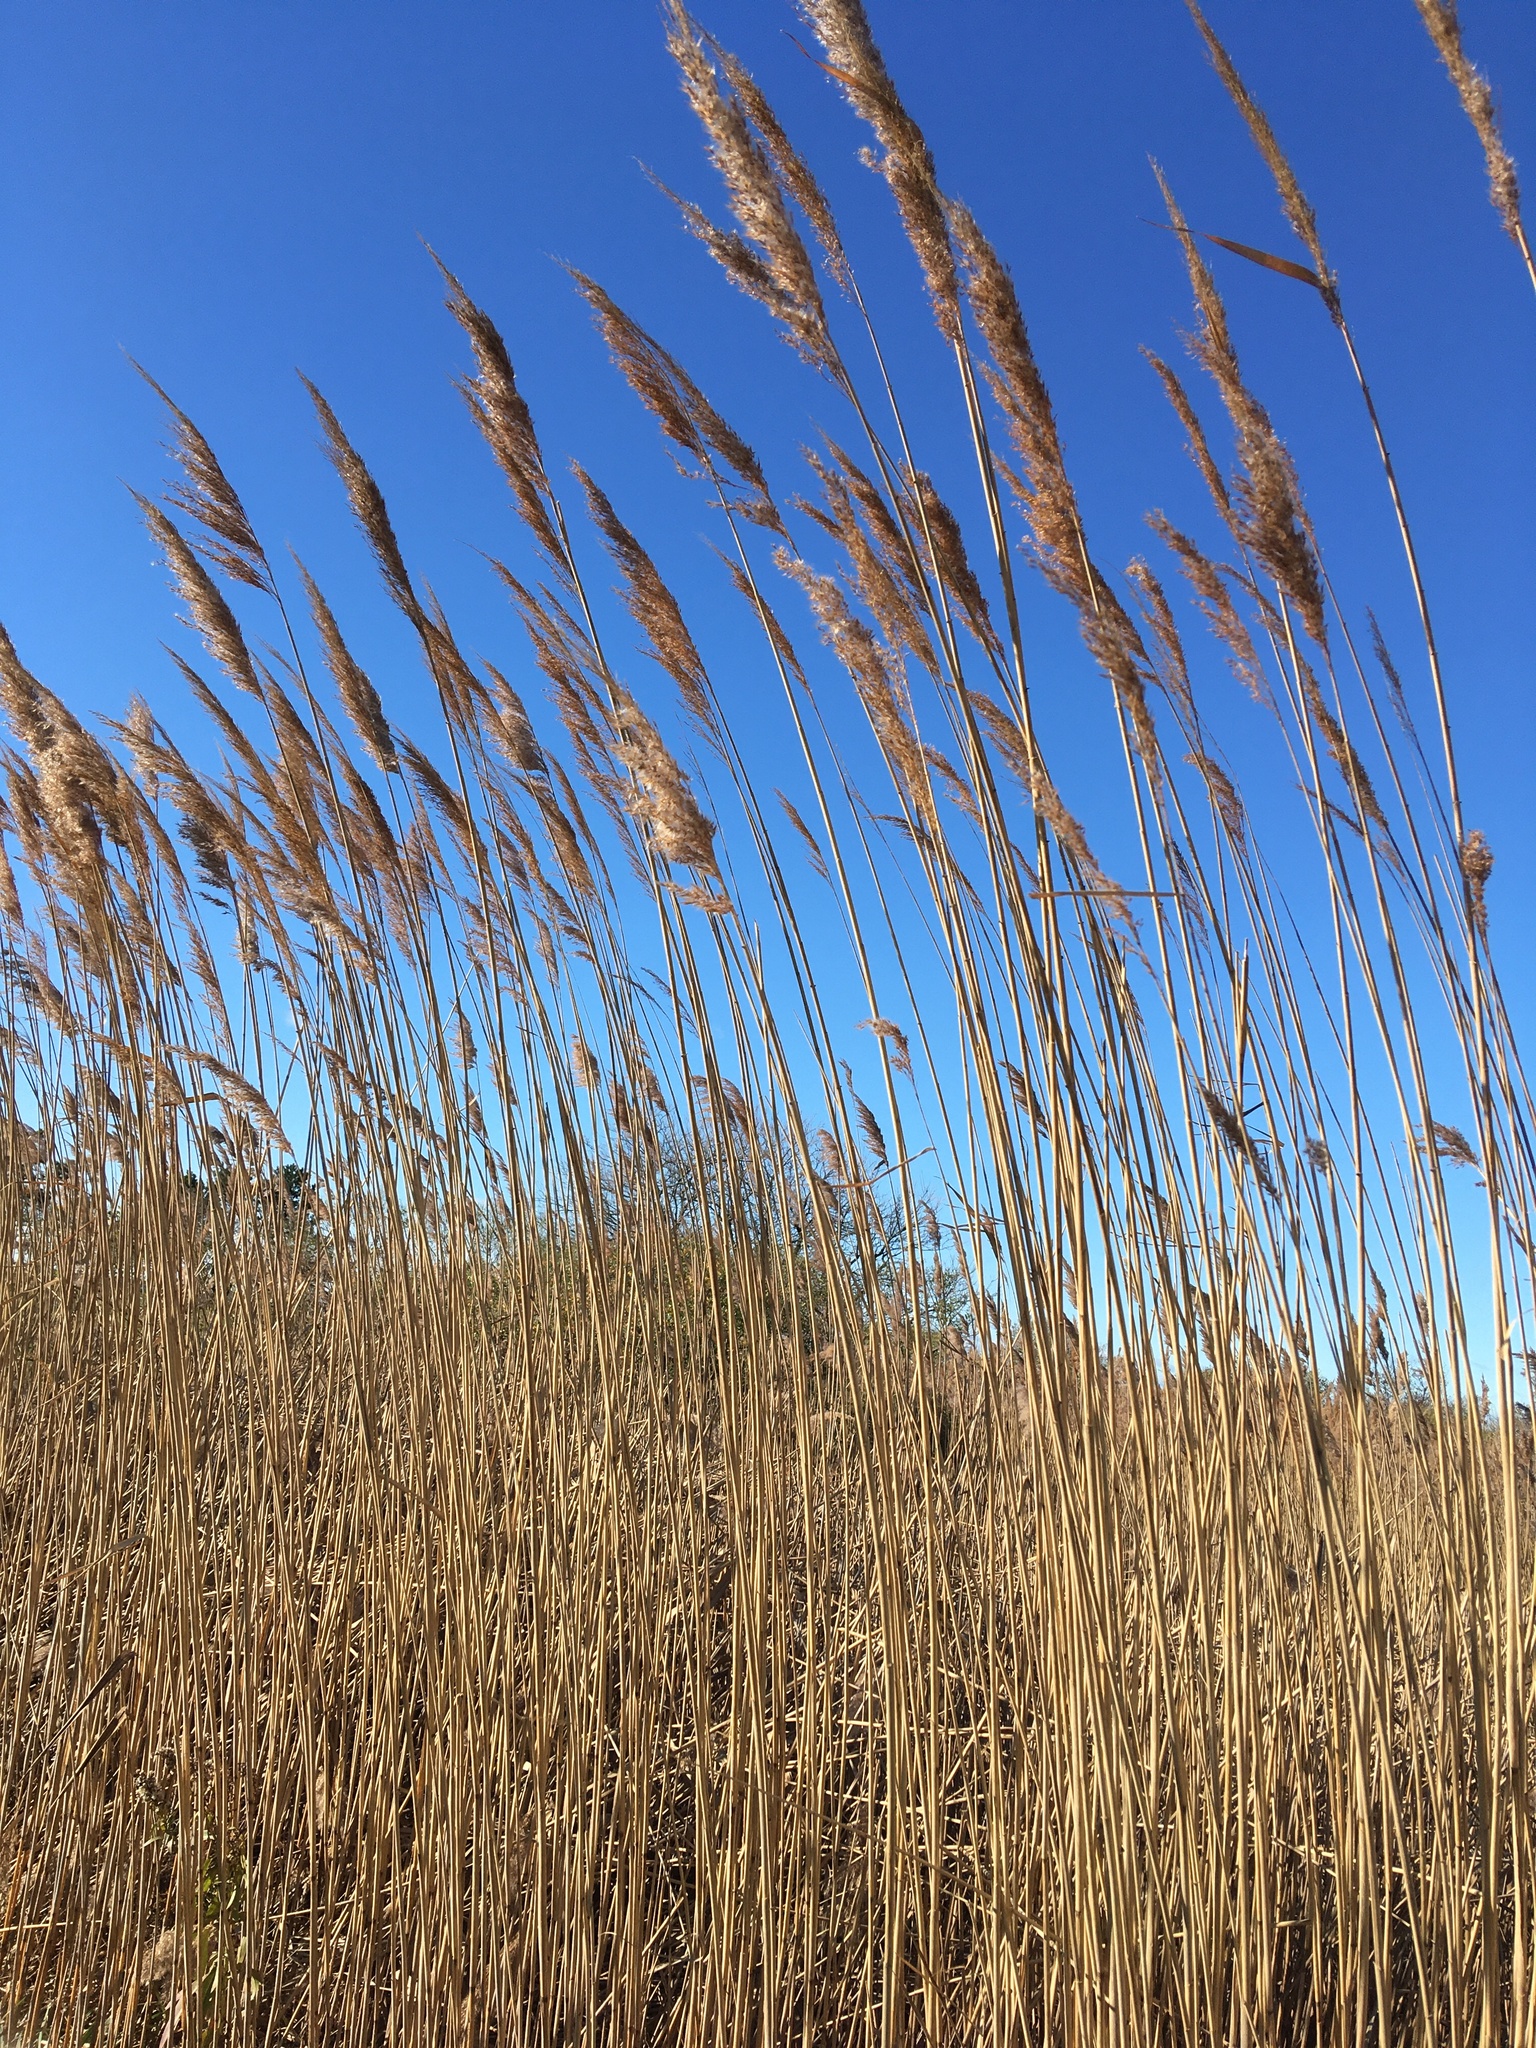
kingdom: Plantae
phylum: Tracheophyta
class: Liliopsida
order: Poales
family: Poaceae
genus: Phragmites
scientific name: Phragmites australis
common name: Common reed
